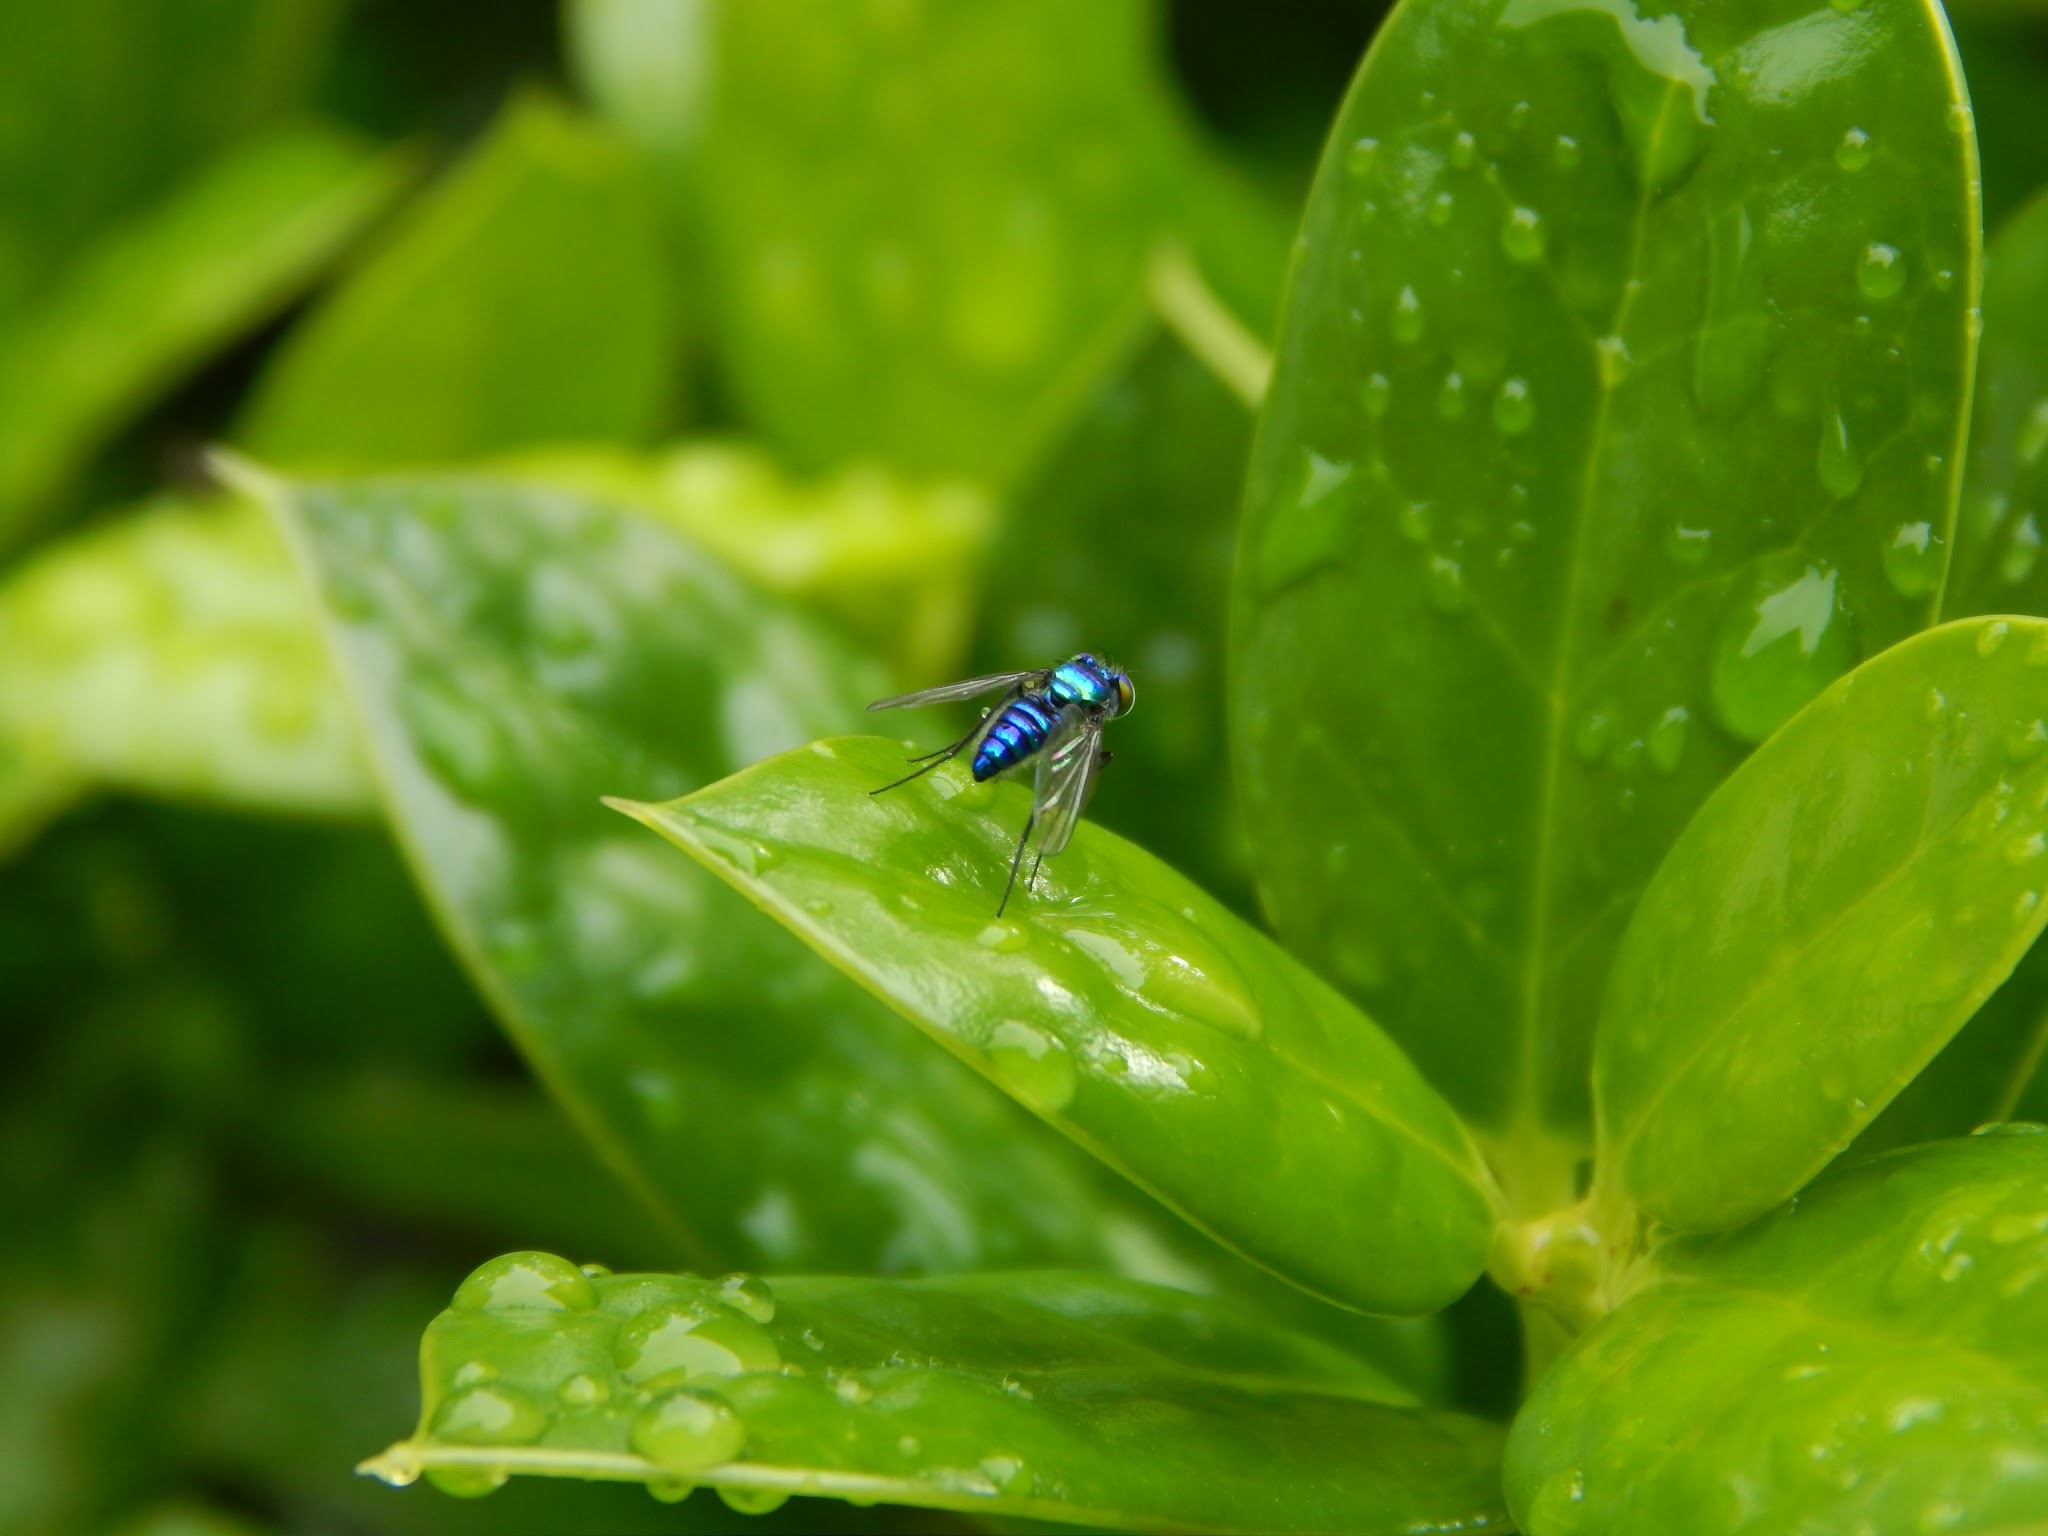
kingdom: Animalia
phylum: Arthropoda
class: Insecta
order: Diptera
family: Dolichopodidae
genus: Condylostylus
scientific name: Condylostylus mundus
